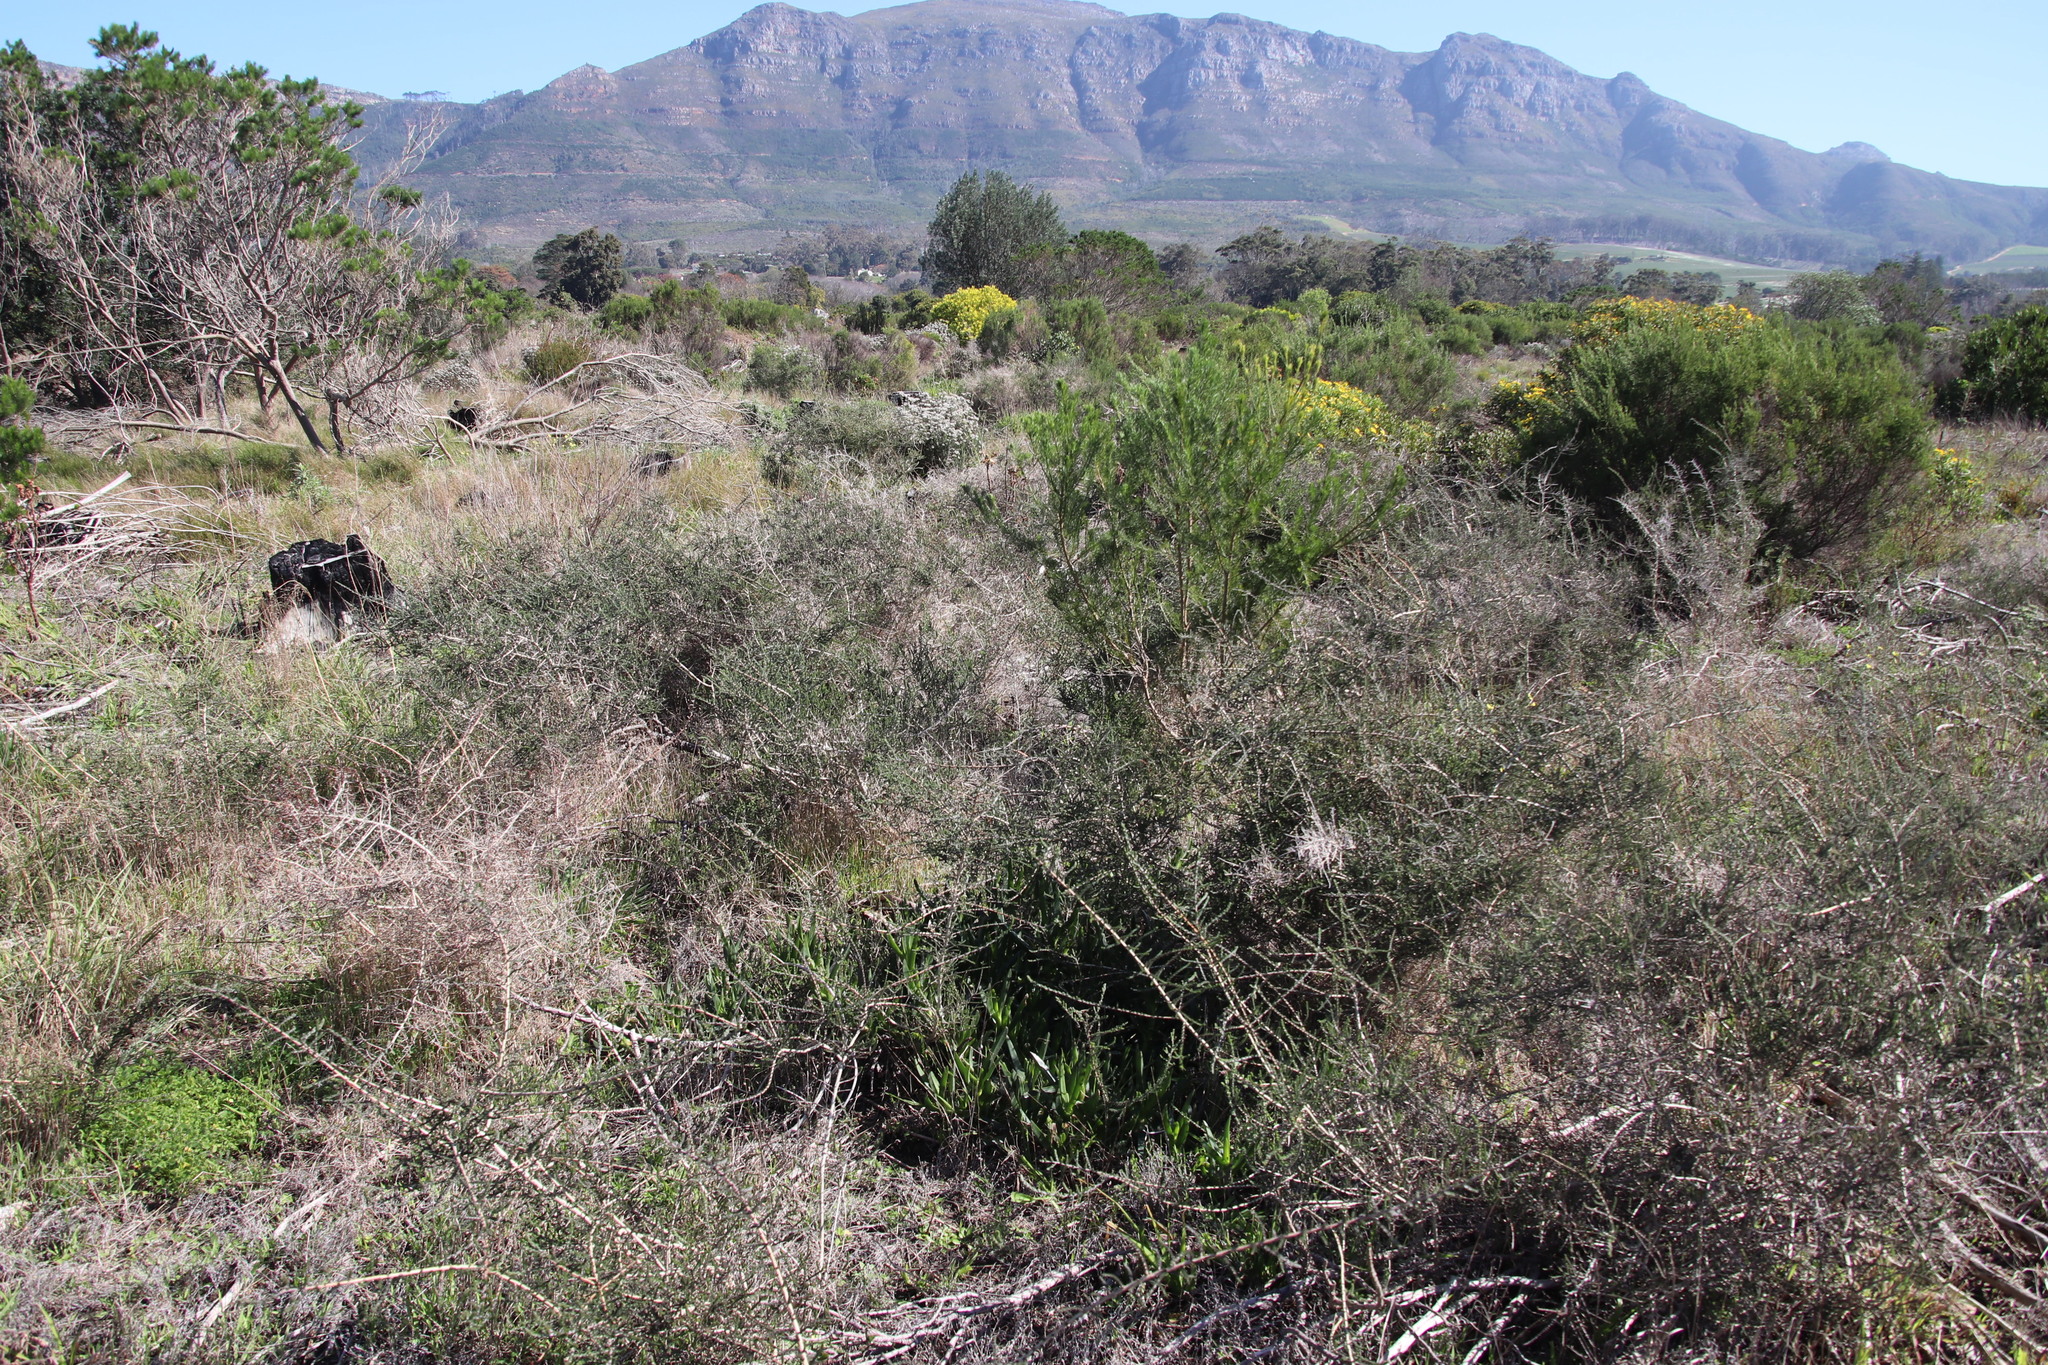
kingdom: Plantae
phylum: Tracheophyta
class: Magnoliopsida
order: Fabales
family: Fabaceae
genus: Aspalathus
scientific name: Aspalathus hispida
